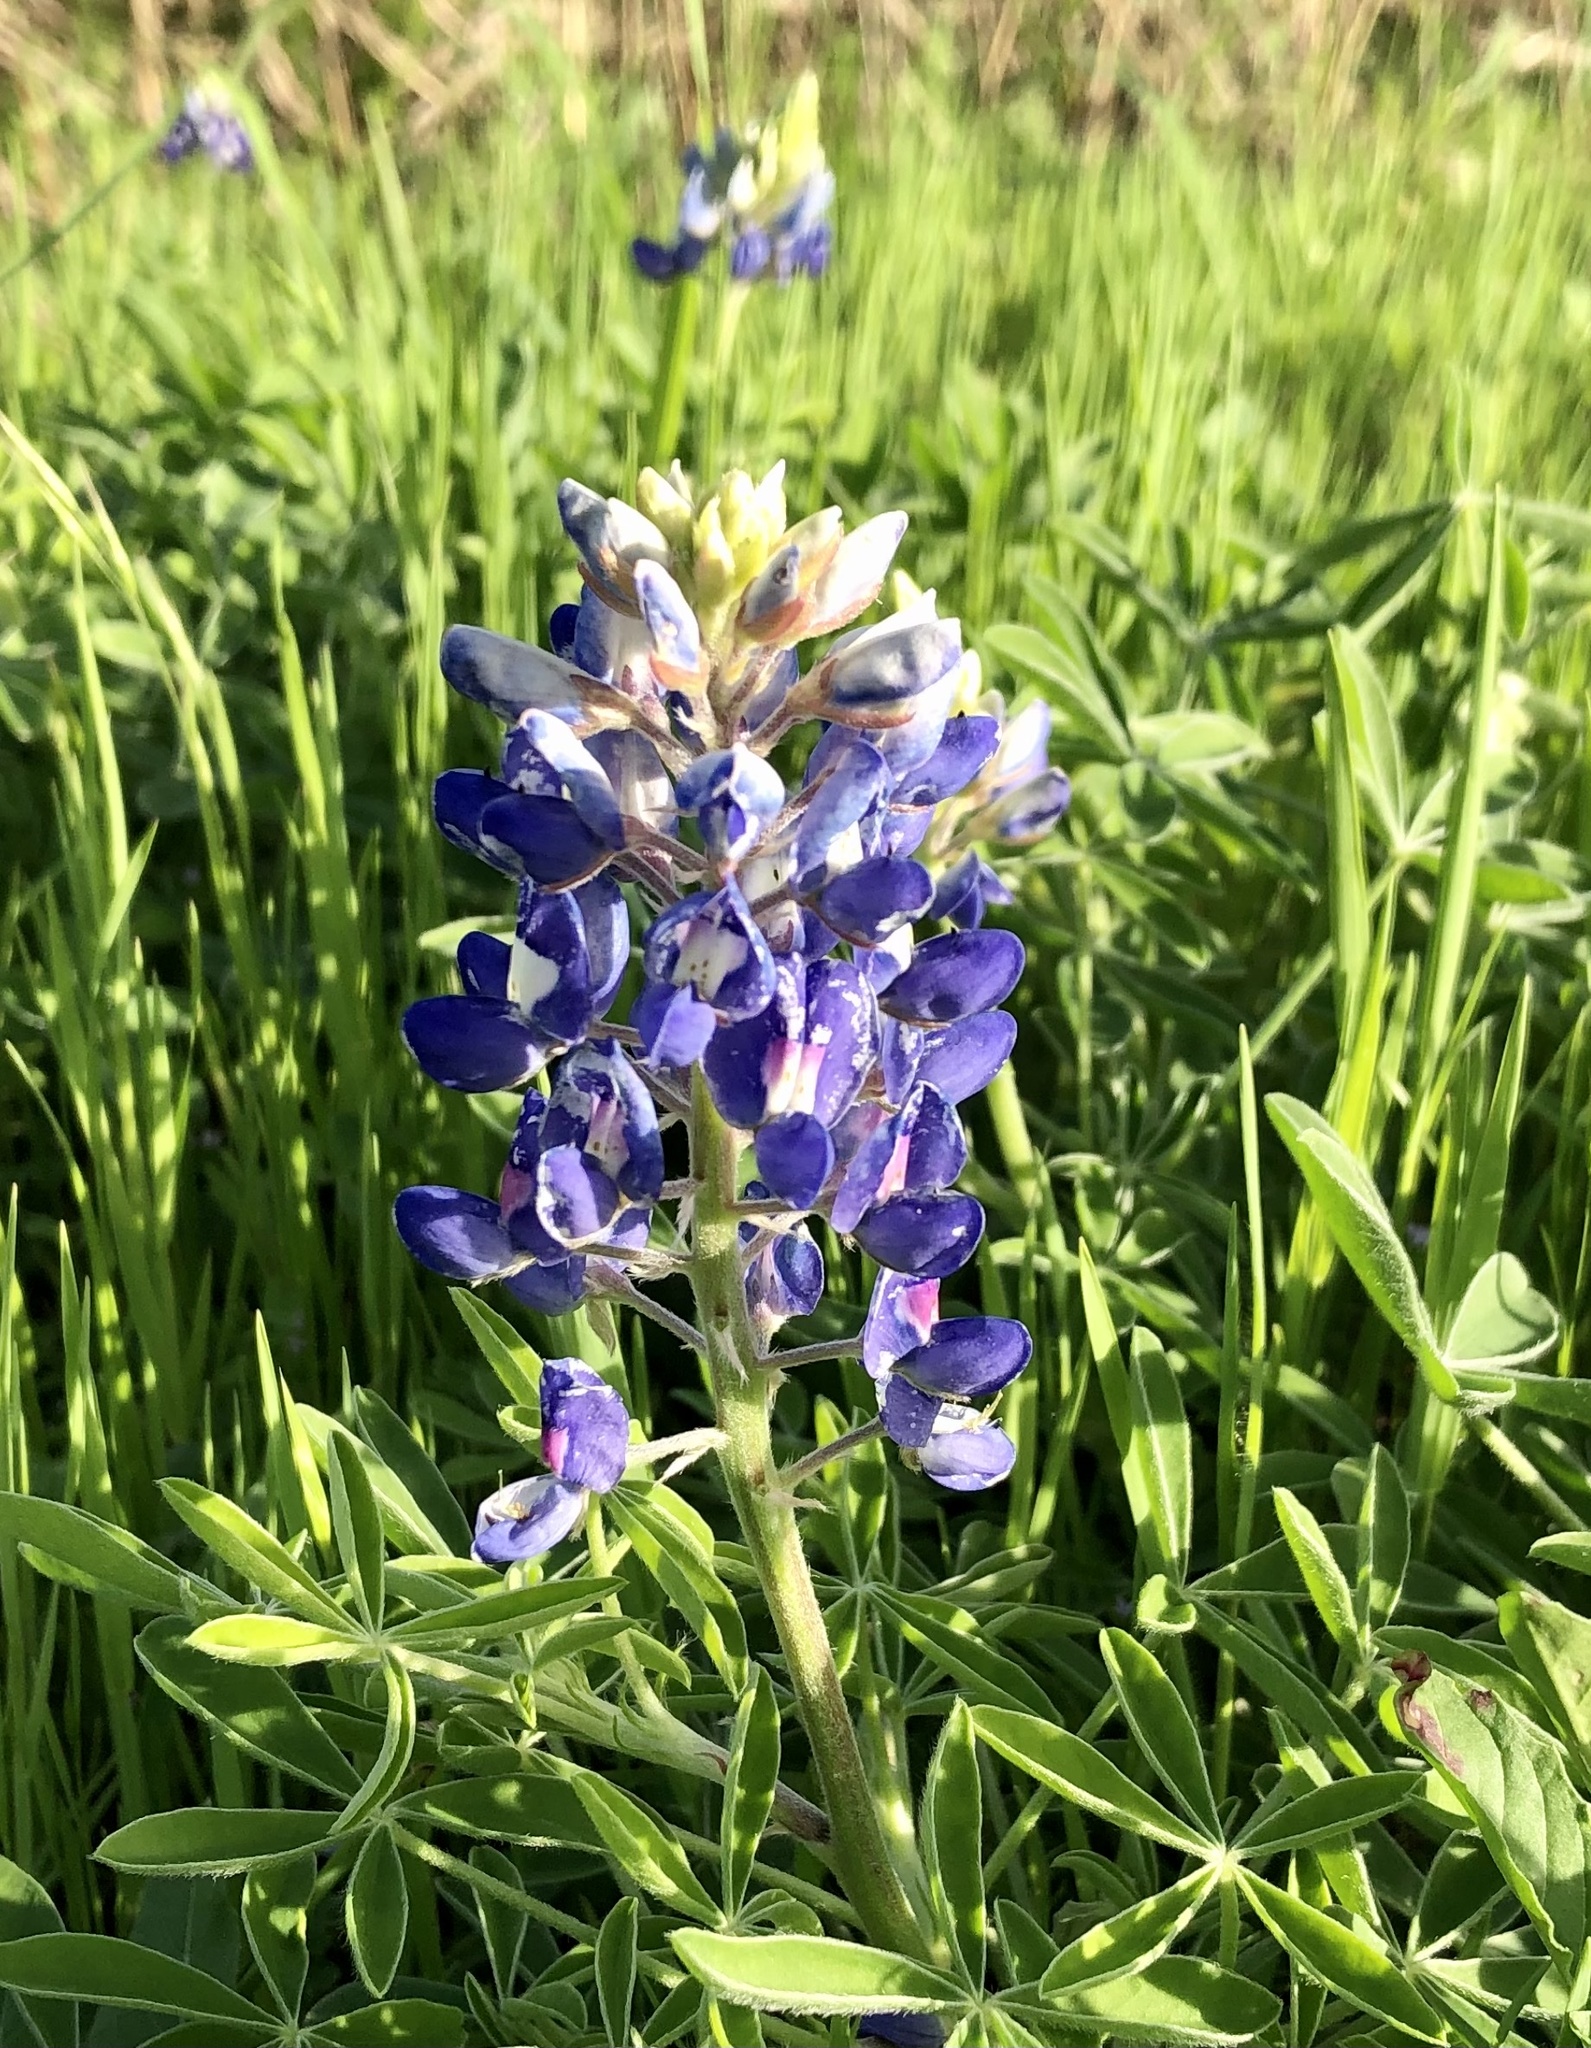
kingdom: Plantae
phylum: Tracheophyta
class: Magnoliopsida
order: Fabales
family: Fabaceae
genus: Lupinus
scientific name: Lupinus texensis
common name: Texas bluebonnet
